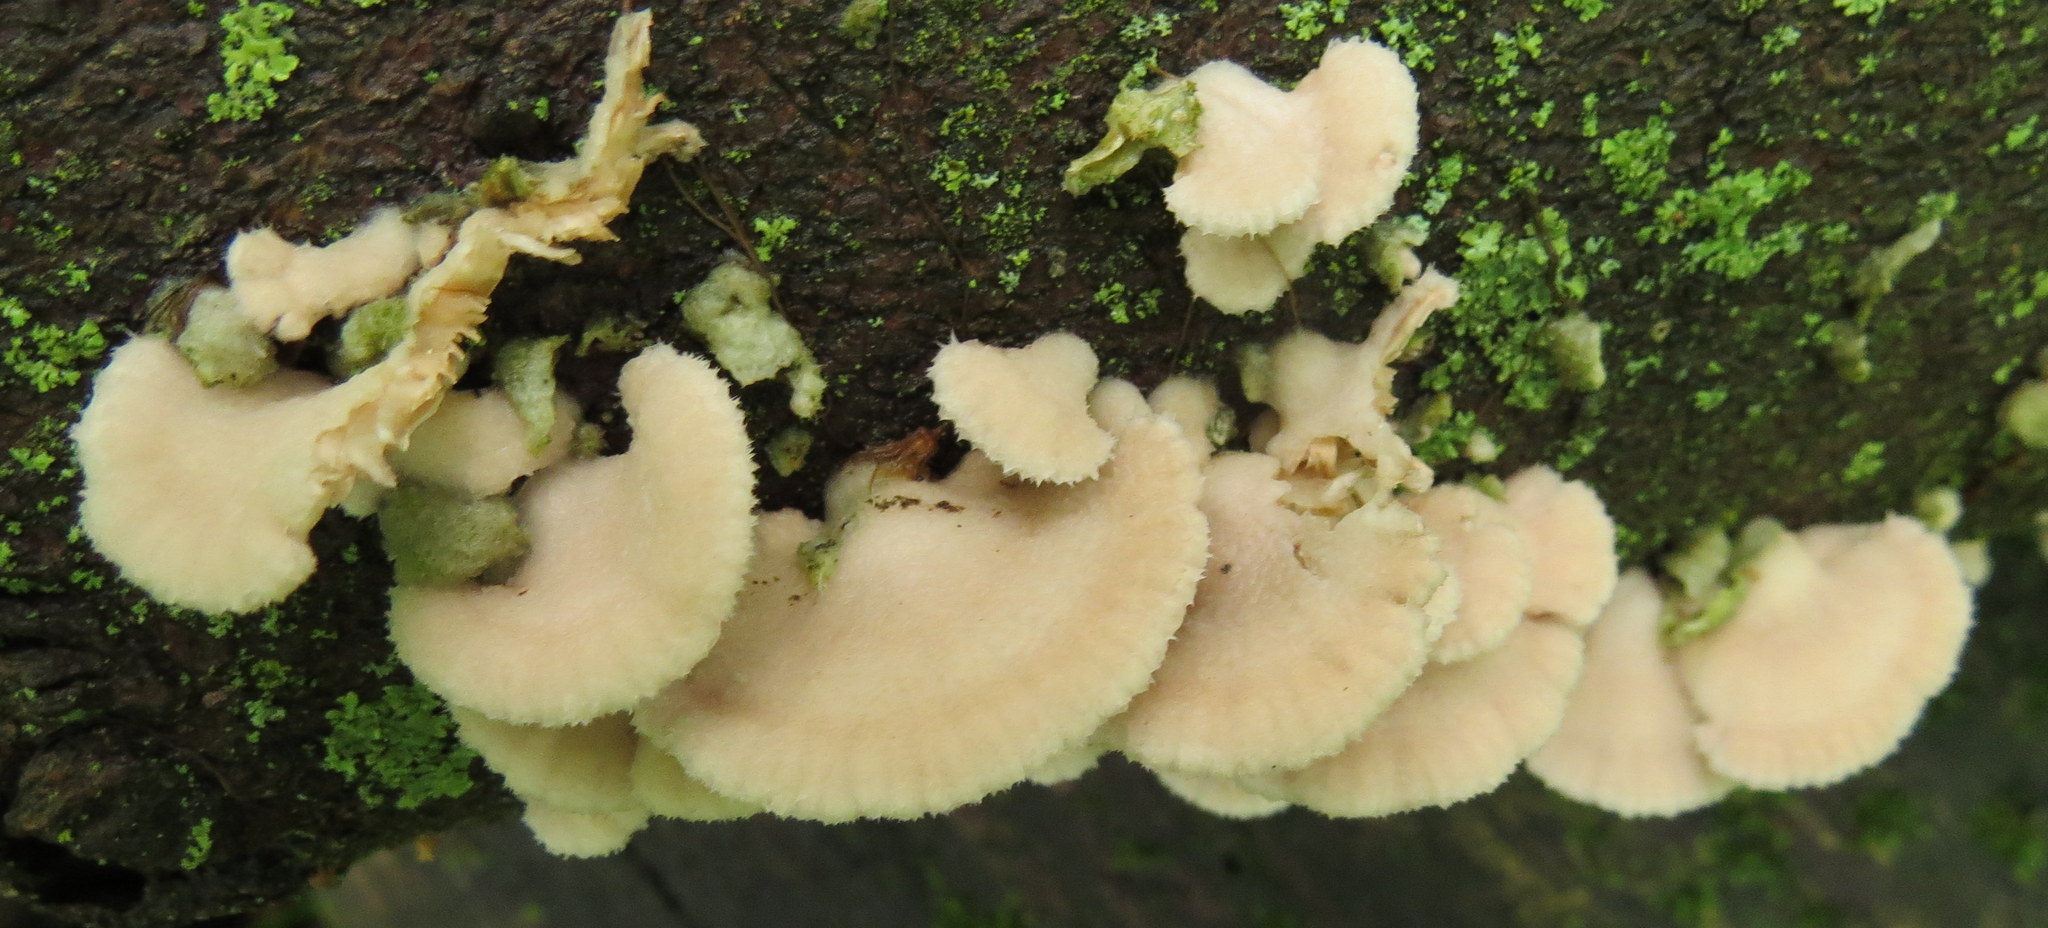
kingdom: Fungi
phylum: Basidiomycota
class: Agaricomycetes
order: Agaricales
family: Schizophyllaceae
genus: Schizophyllum
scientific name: Schizophyllum commune
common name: Common porecrust
